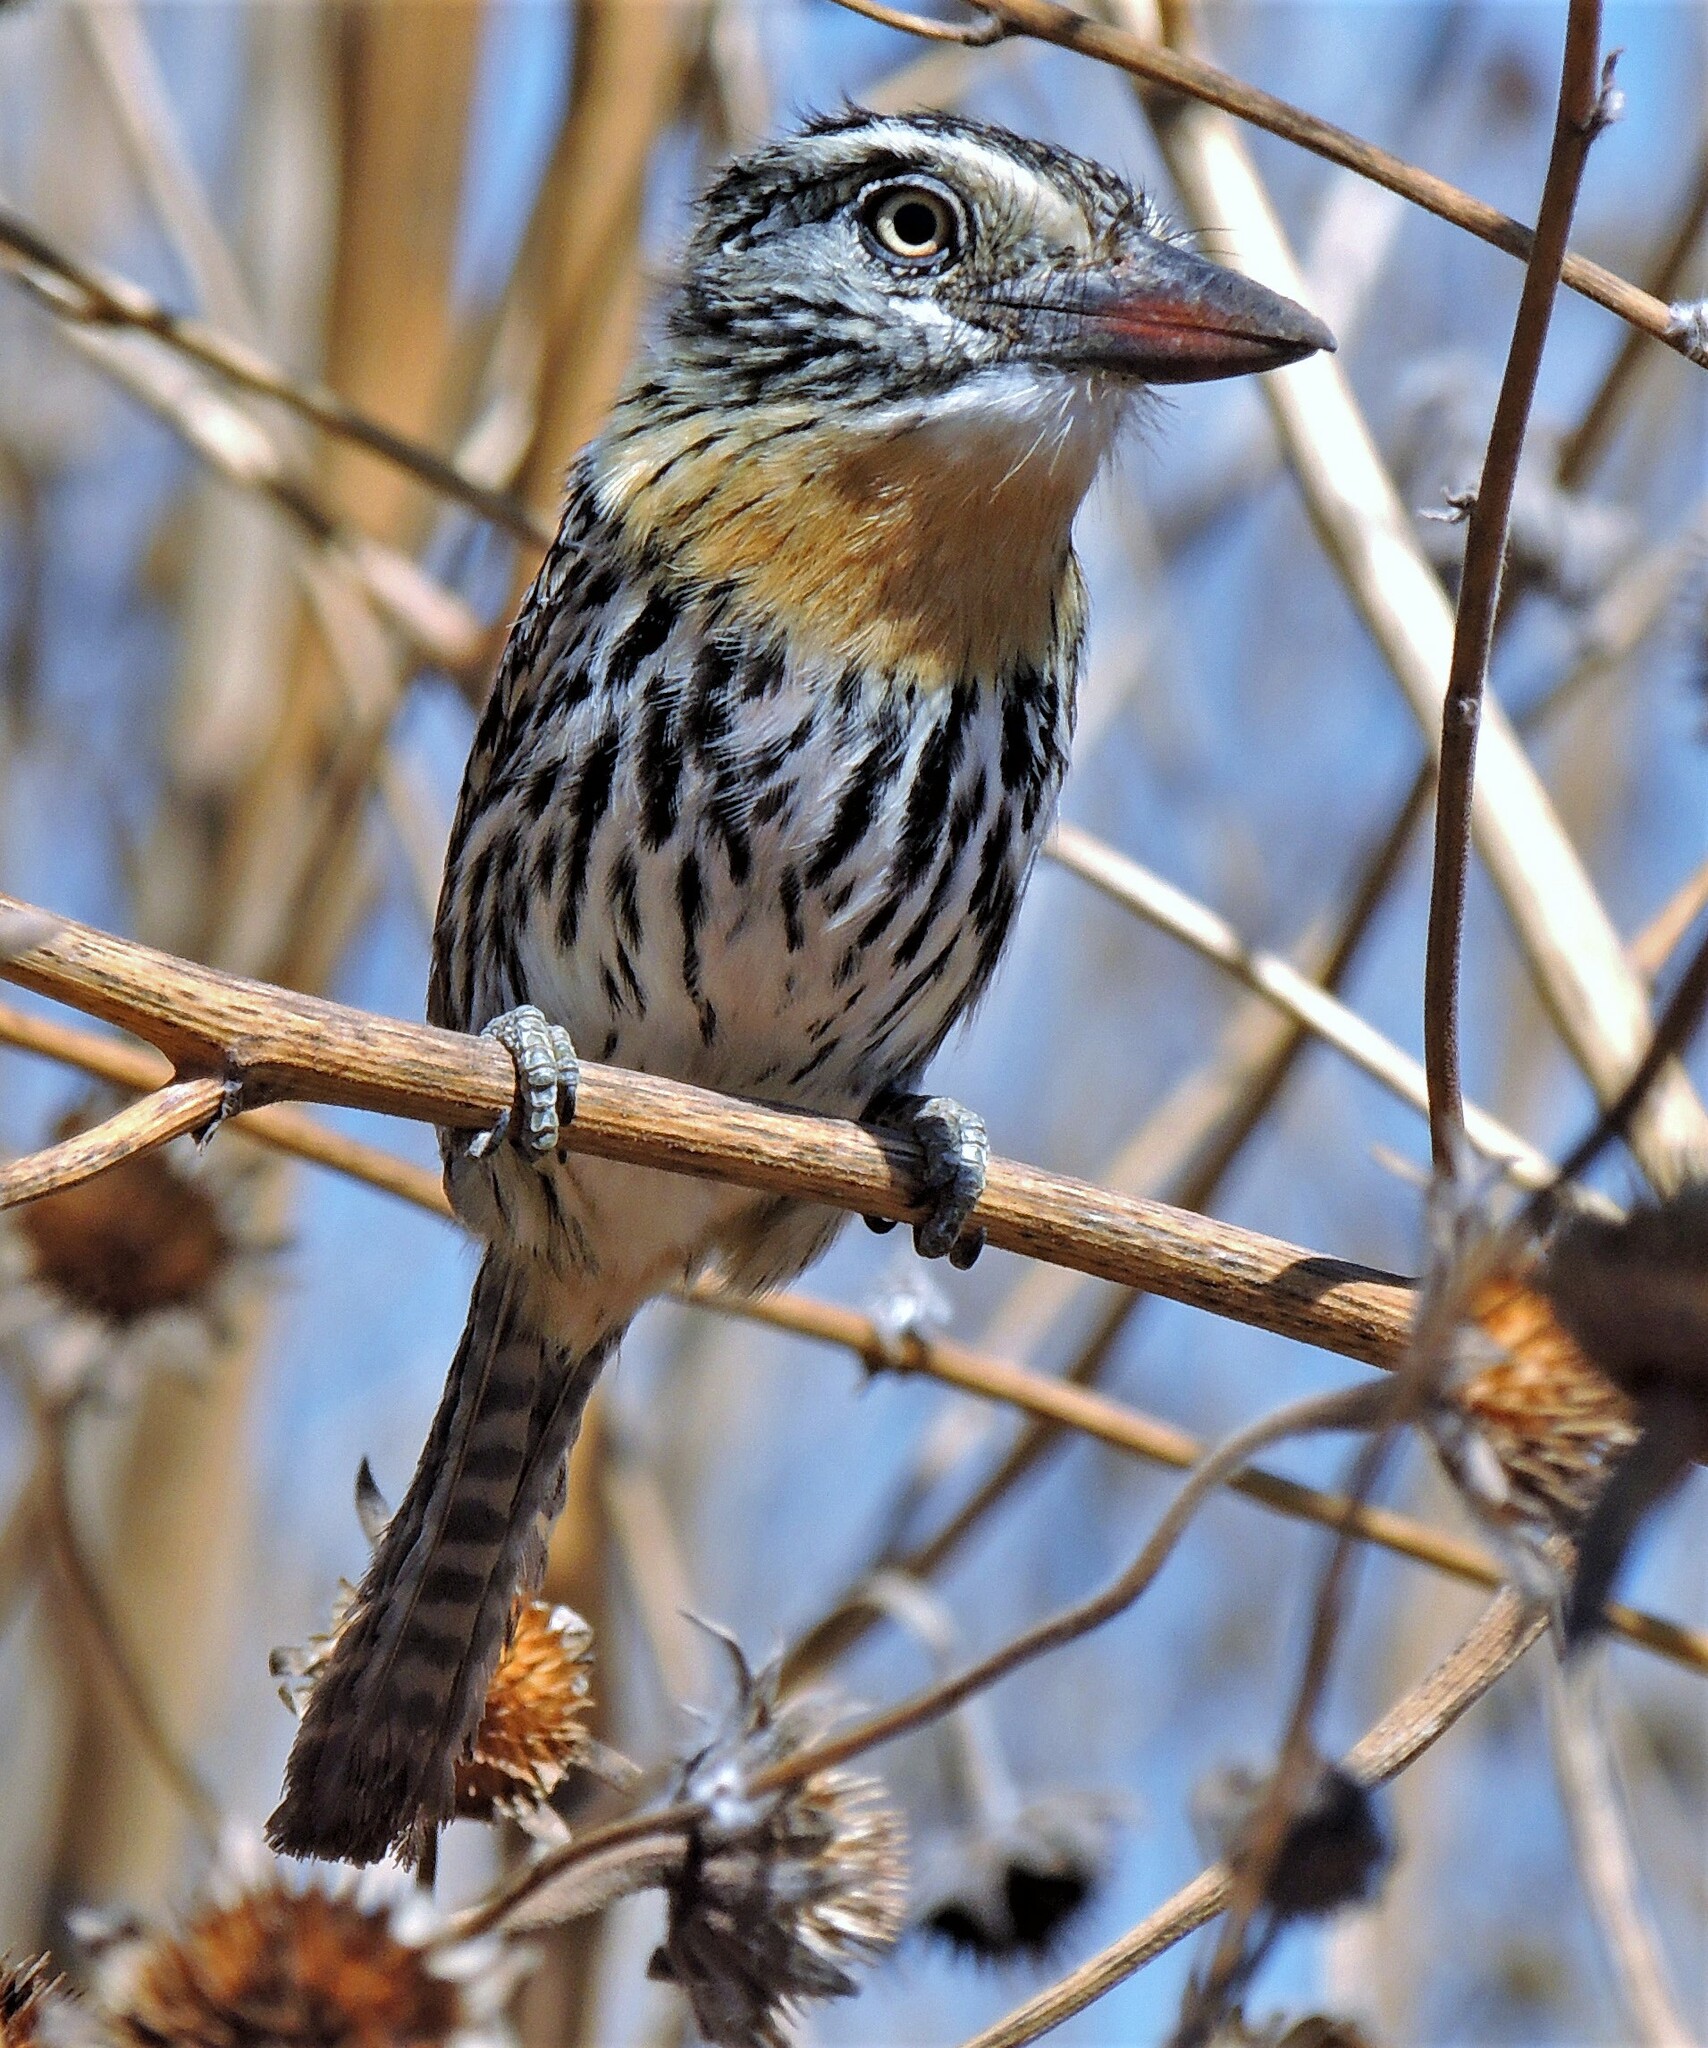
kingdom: Animalia
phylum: Chordata
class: Aves
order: Piciformes
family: Bucconidae
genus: Nystalus
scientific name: Nystalus maculatus
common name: Caatinga puffbird
